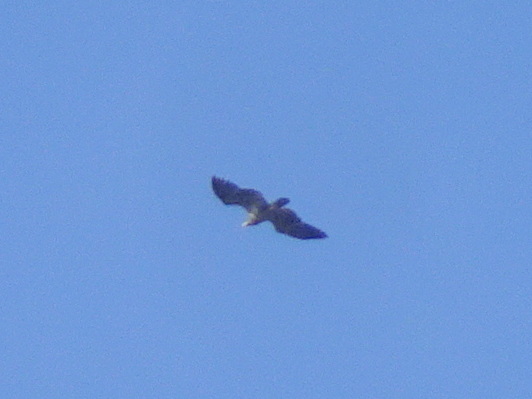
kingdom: Animalia
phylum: Chordata
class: Aves
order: Accipitriformes
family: Accipitridae
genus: Haliaeetus
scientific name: Haliaeetus leucocephalus
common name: Bald eagle
